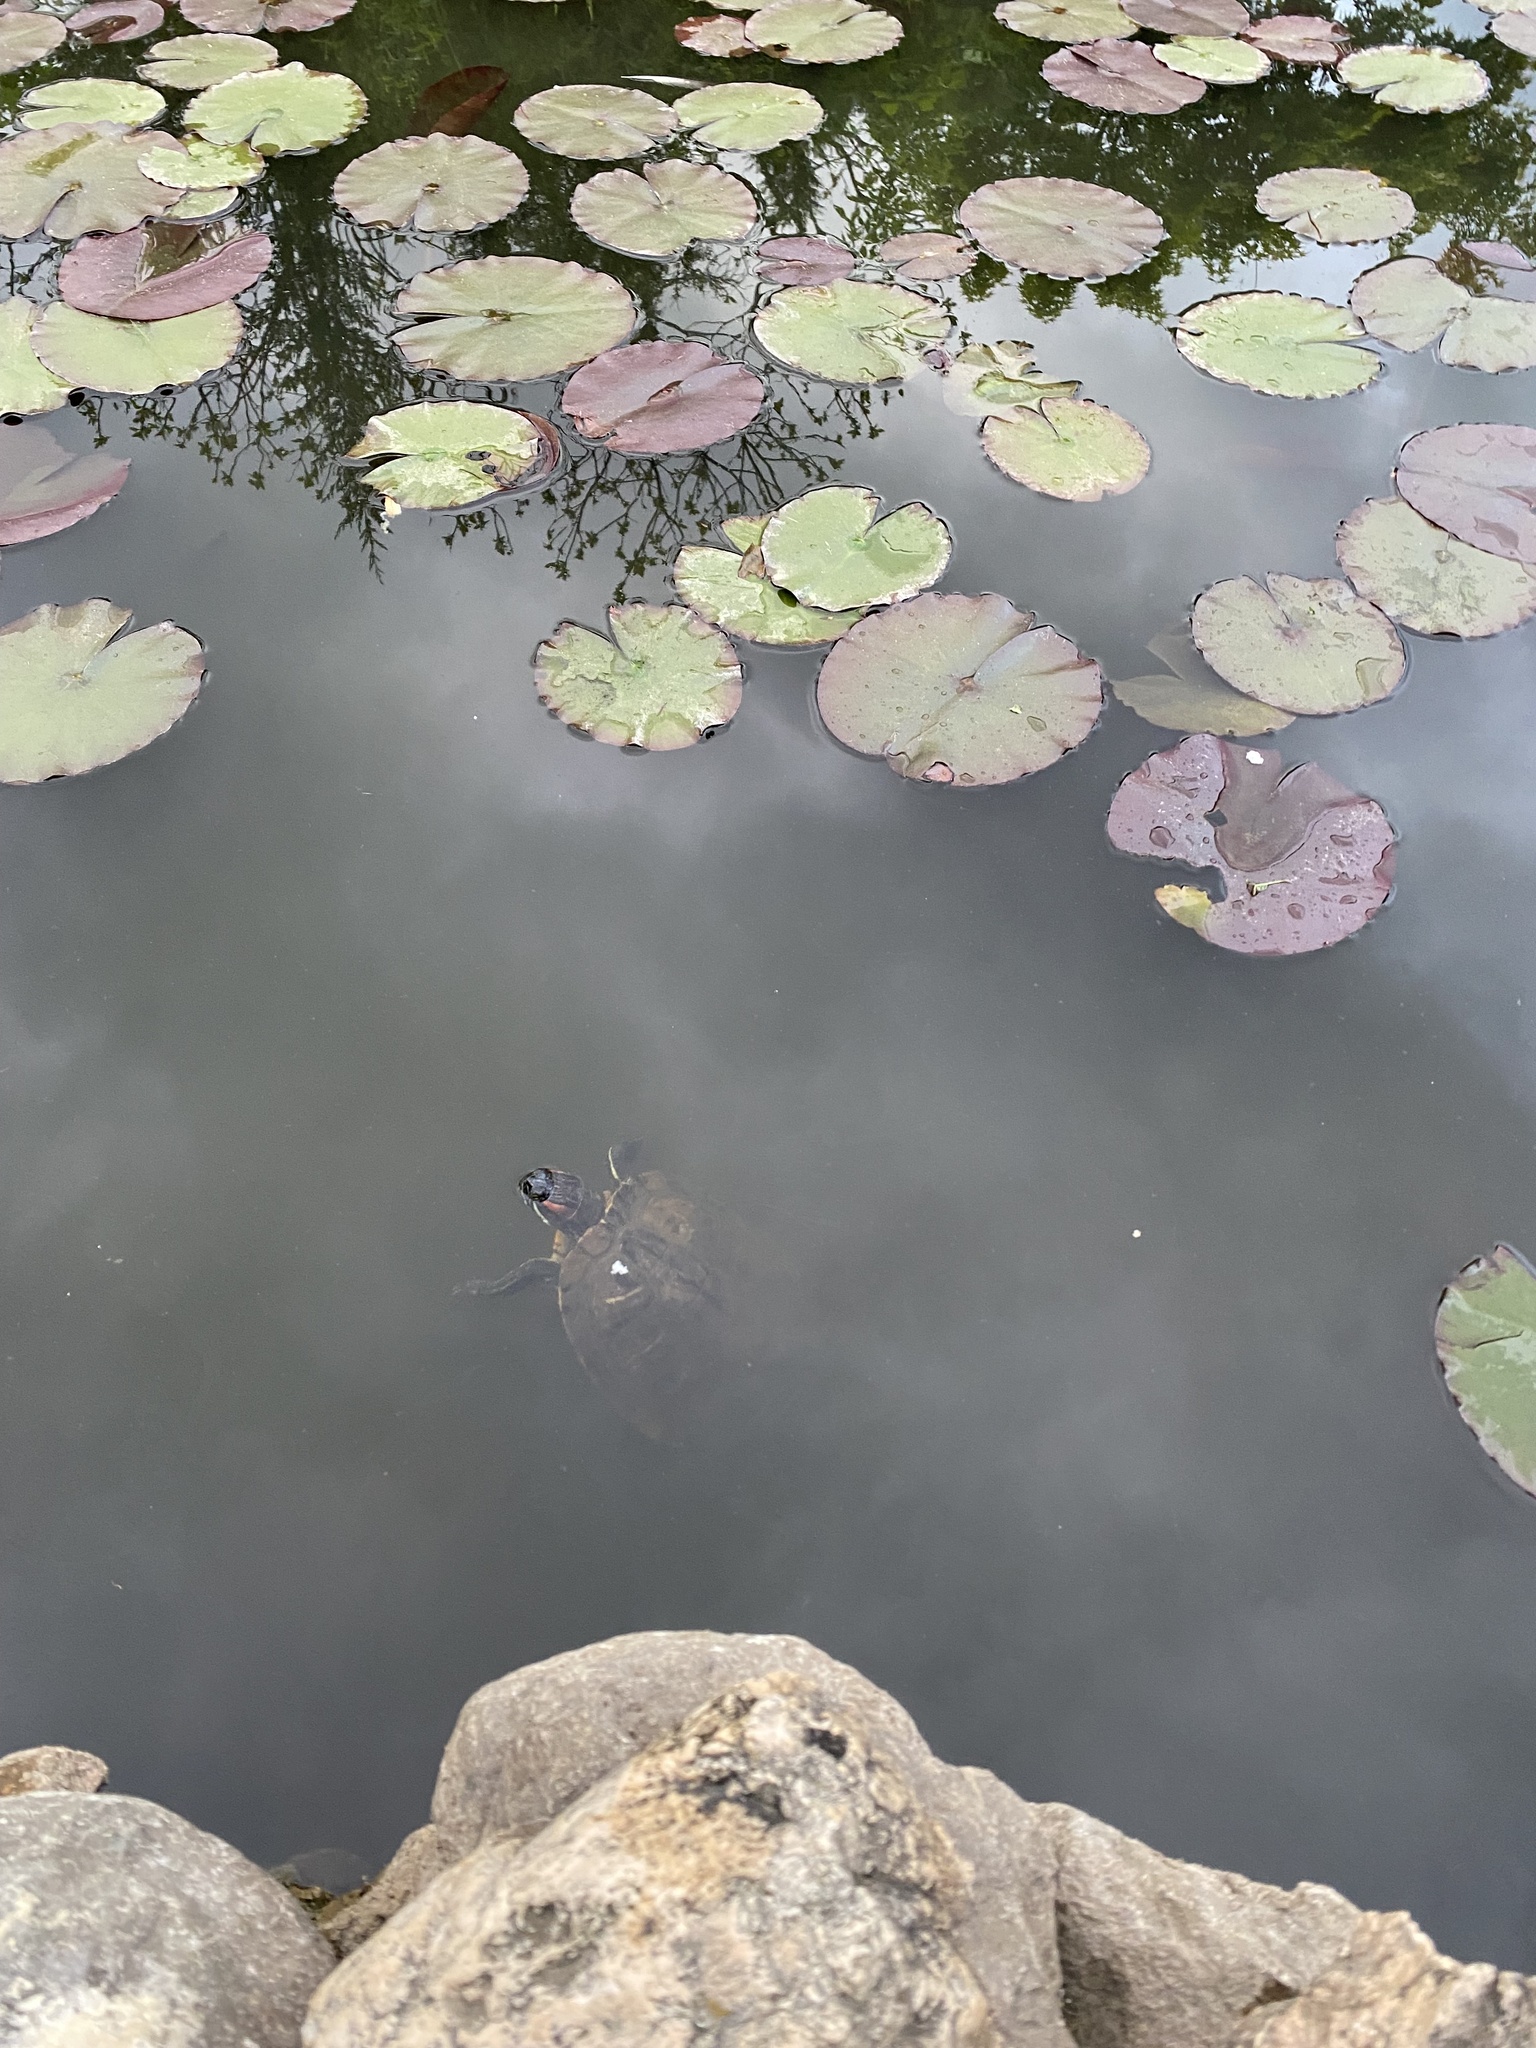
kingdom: Animalia
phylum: Chordata
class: Testudines
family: Emydidae
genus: Trachemys
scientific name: Trachemys scripta
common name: Slider
